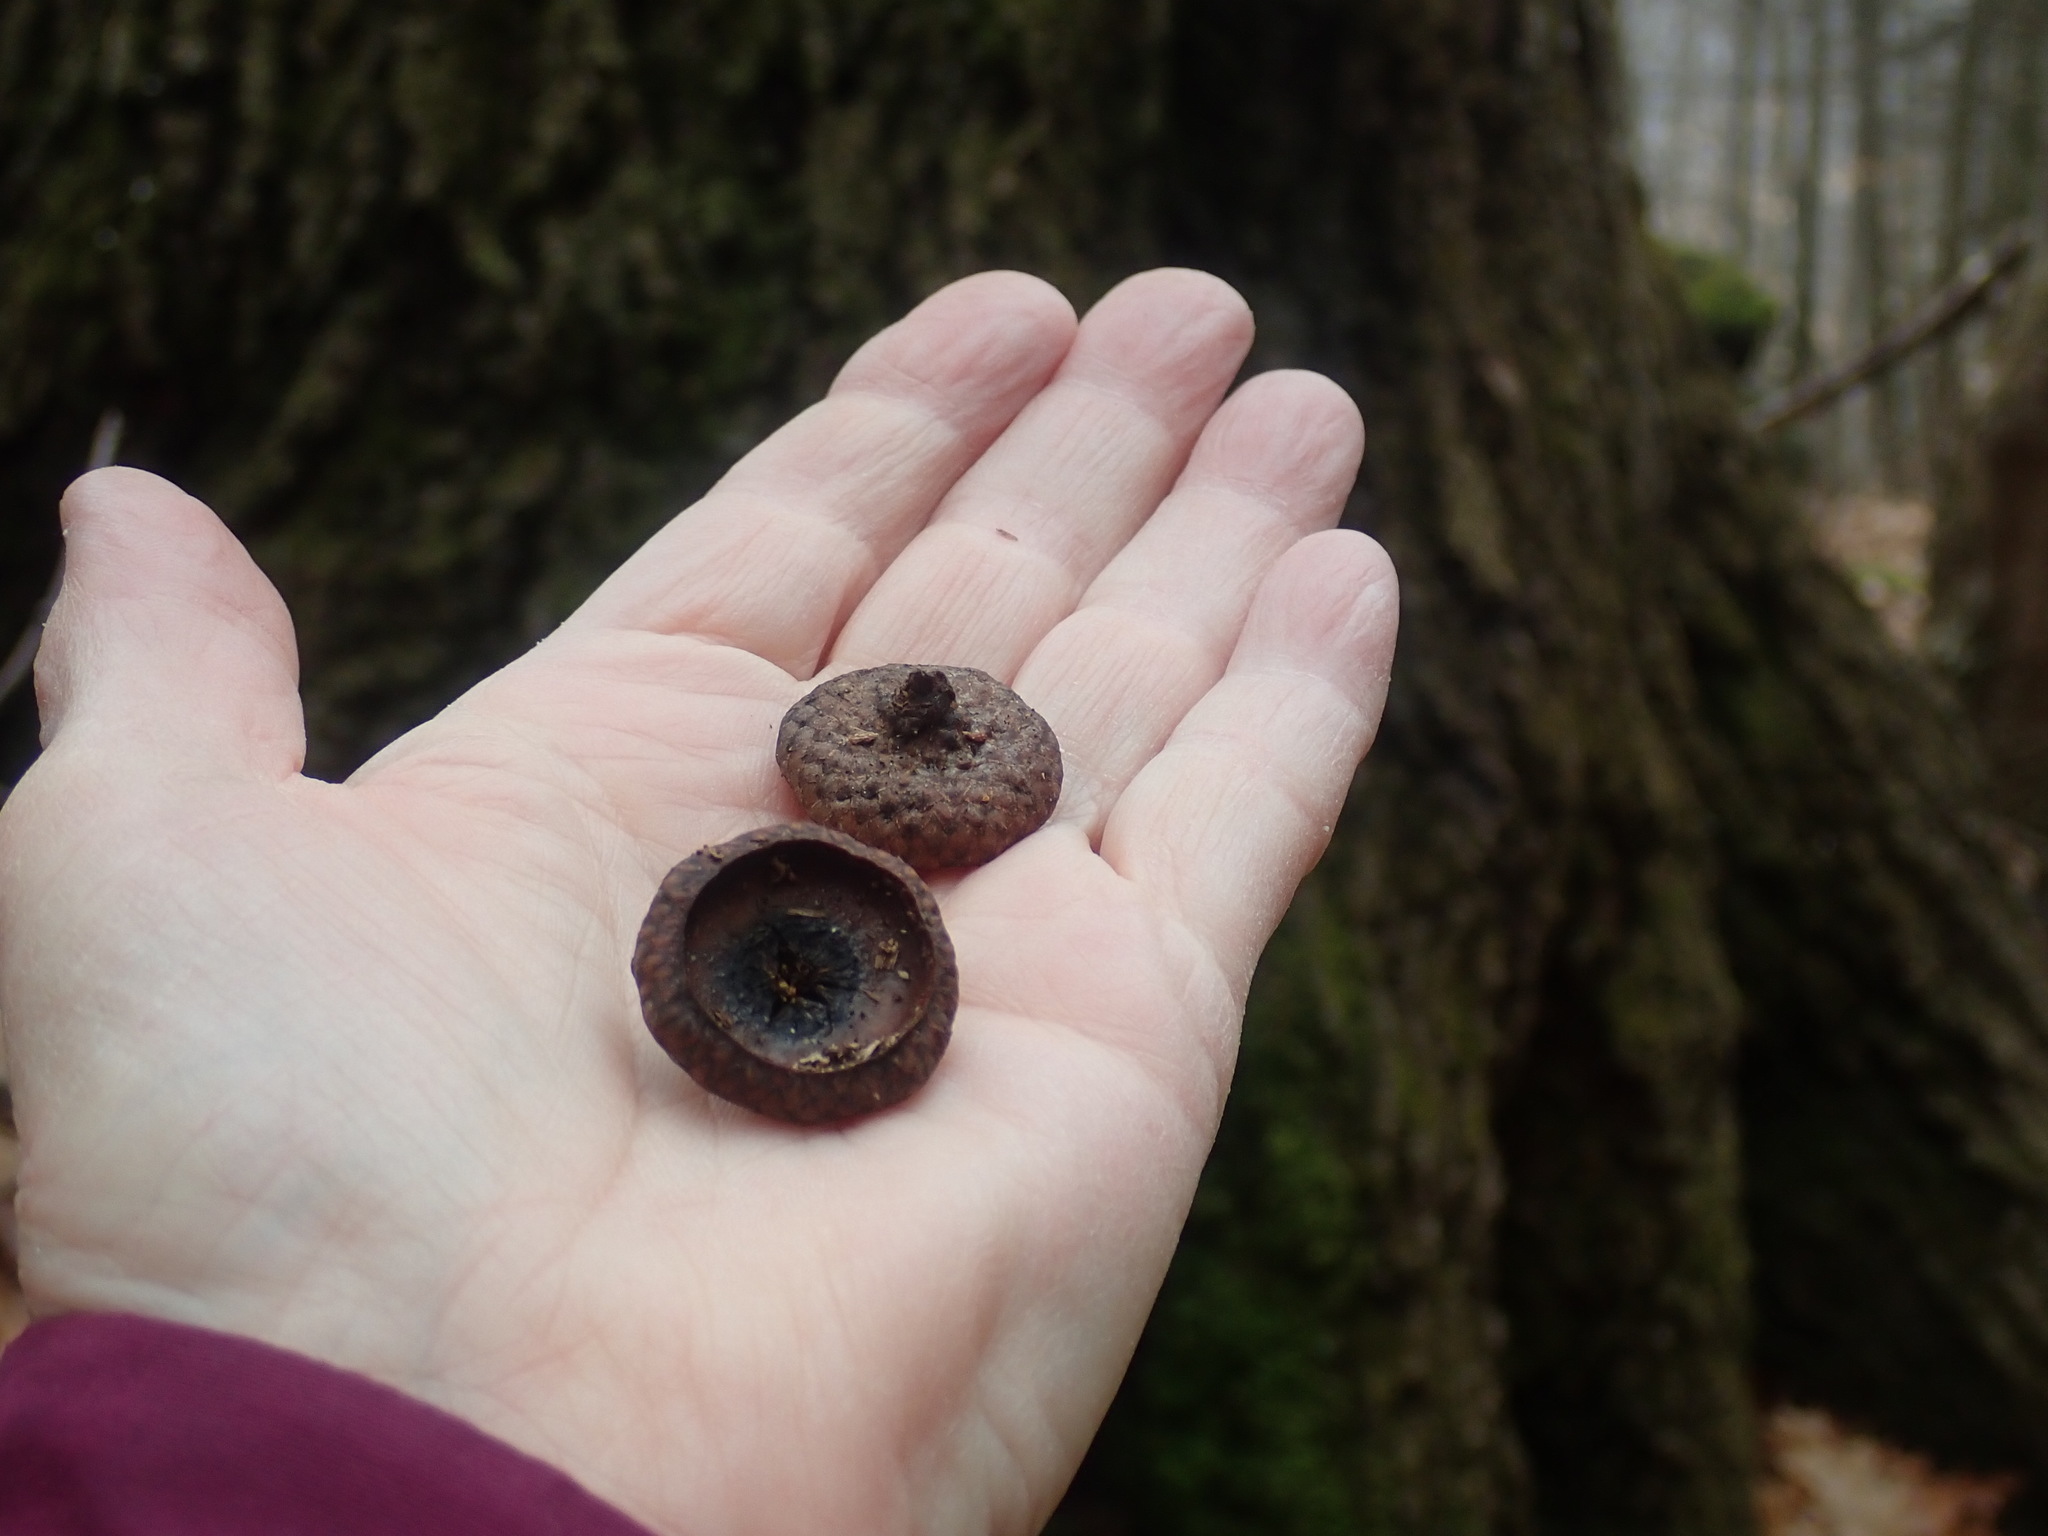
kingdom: Plantae
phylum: Tracheophyta
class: Magnoliopsida
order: Fagales
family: Fagaceae
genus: Quercus
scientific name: Quercus rubra
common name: Red oak
